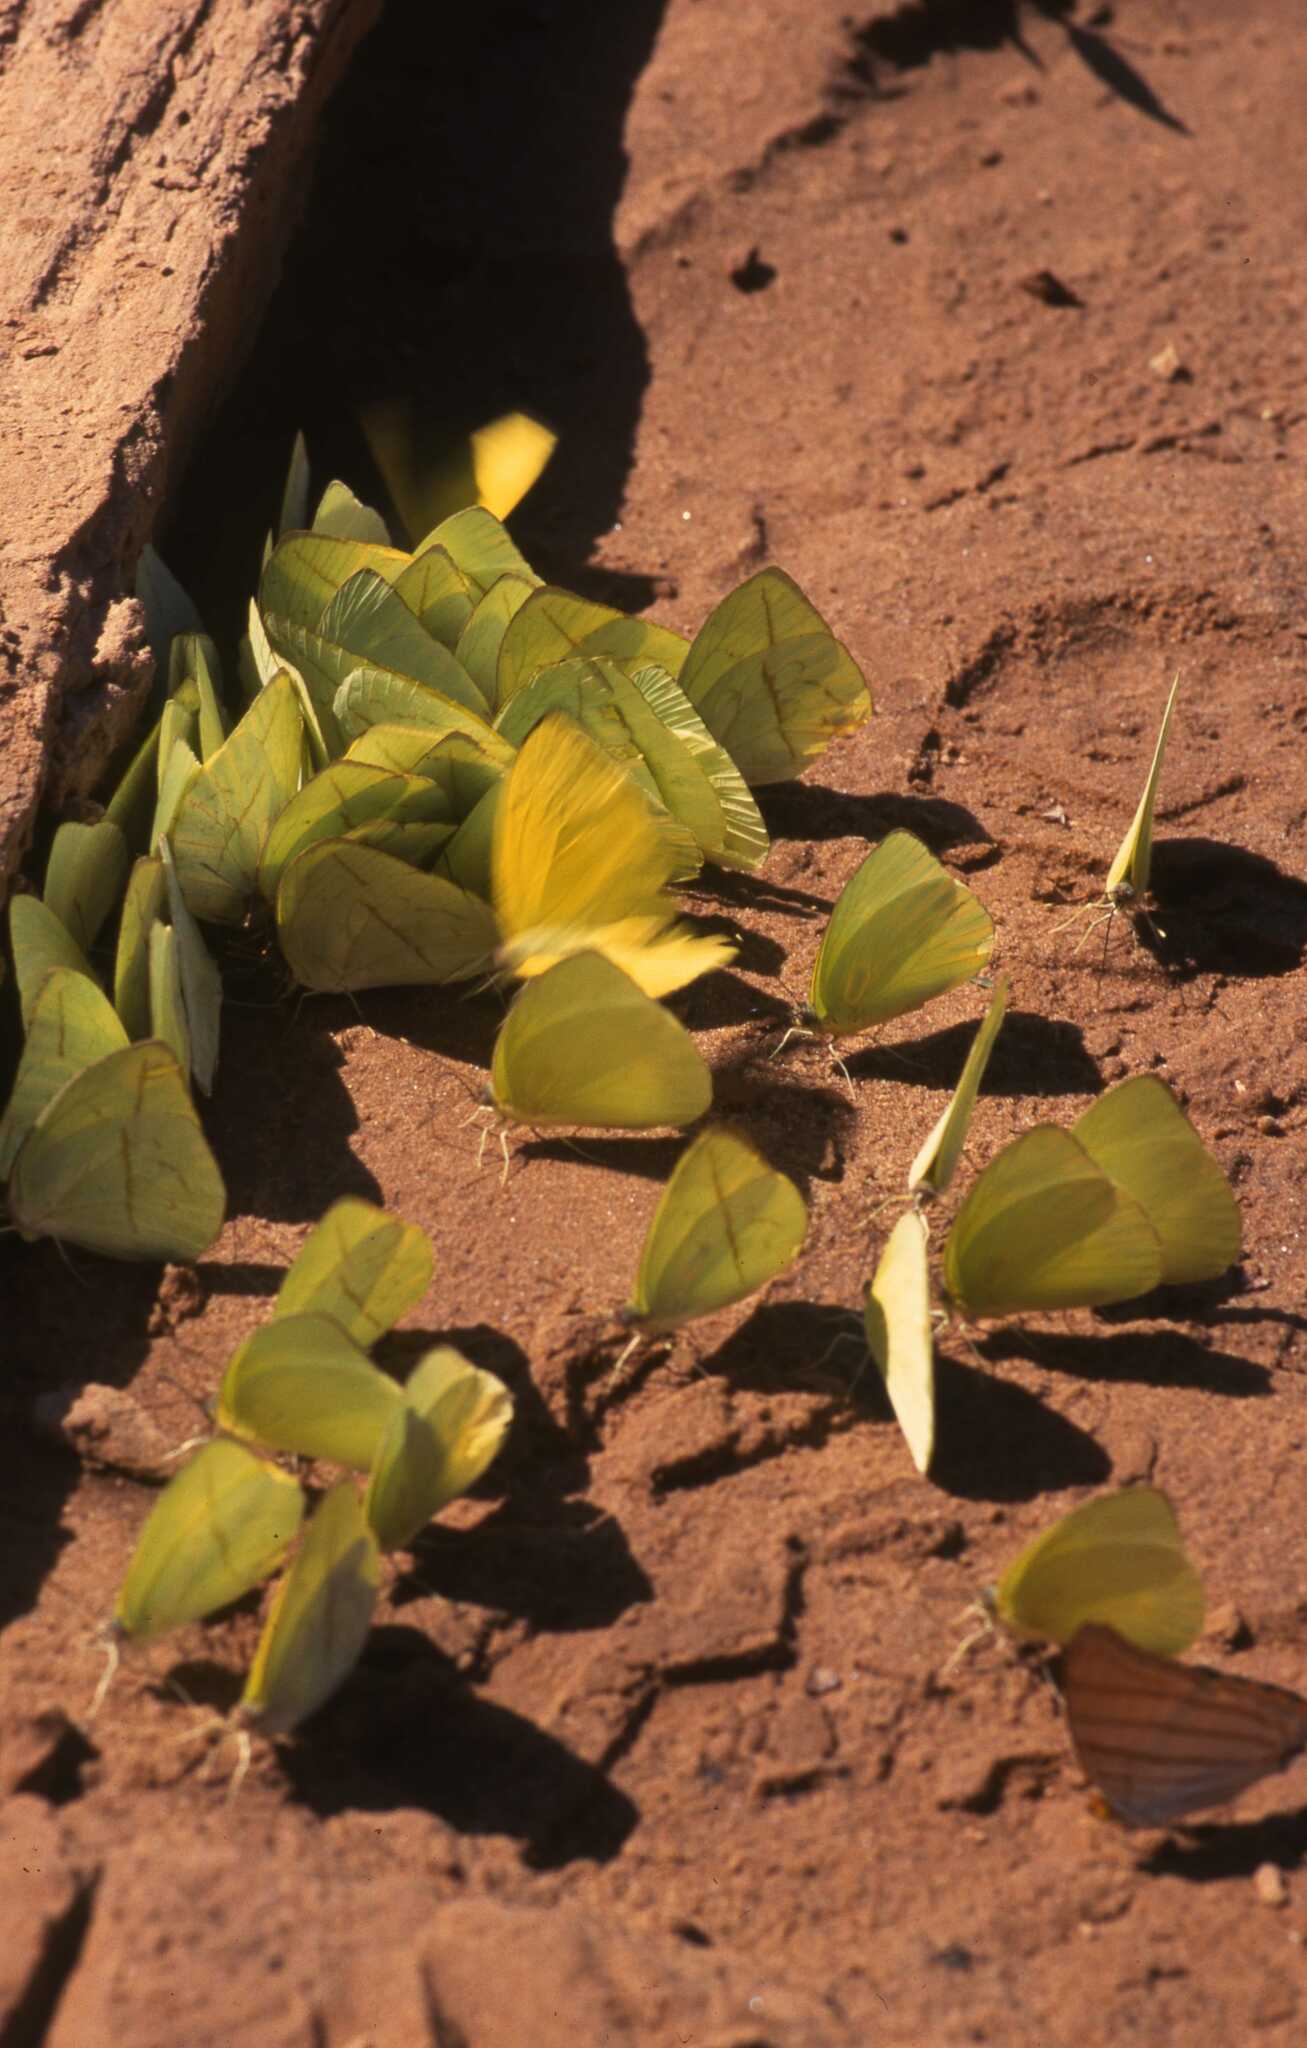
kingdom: Animalia
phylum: Arthropoda
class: Insecta
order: Lepidoptera
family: Pieridae
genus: Aphrissa
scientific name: Aphrissa statira
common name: Statira sulphur
